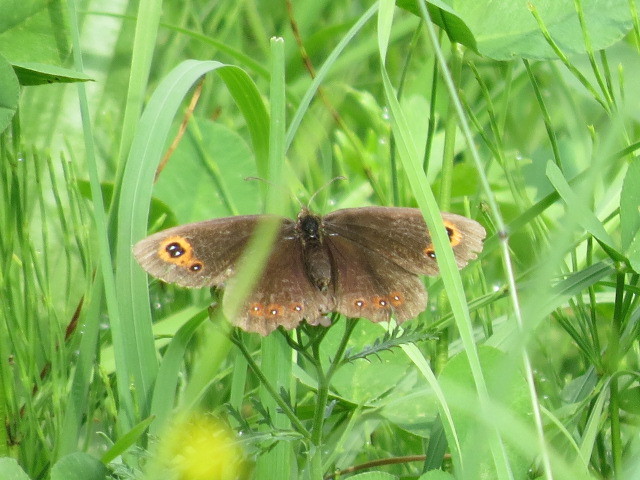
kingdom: Animalia
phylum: Arthropoda
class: Insecta
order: Lepidoptera
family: Nymphalidae
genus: Erebia
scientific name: Erebia aethiops
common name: Scotch argus
